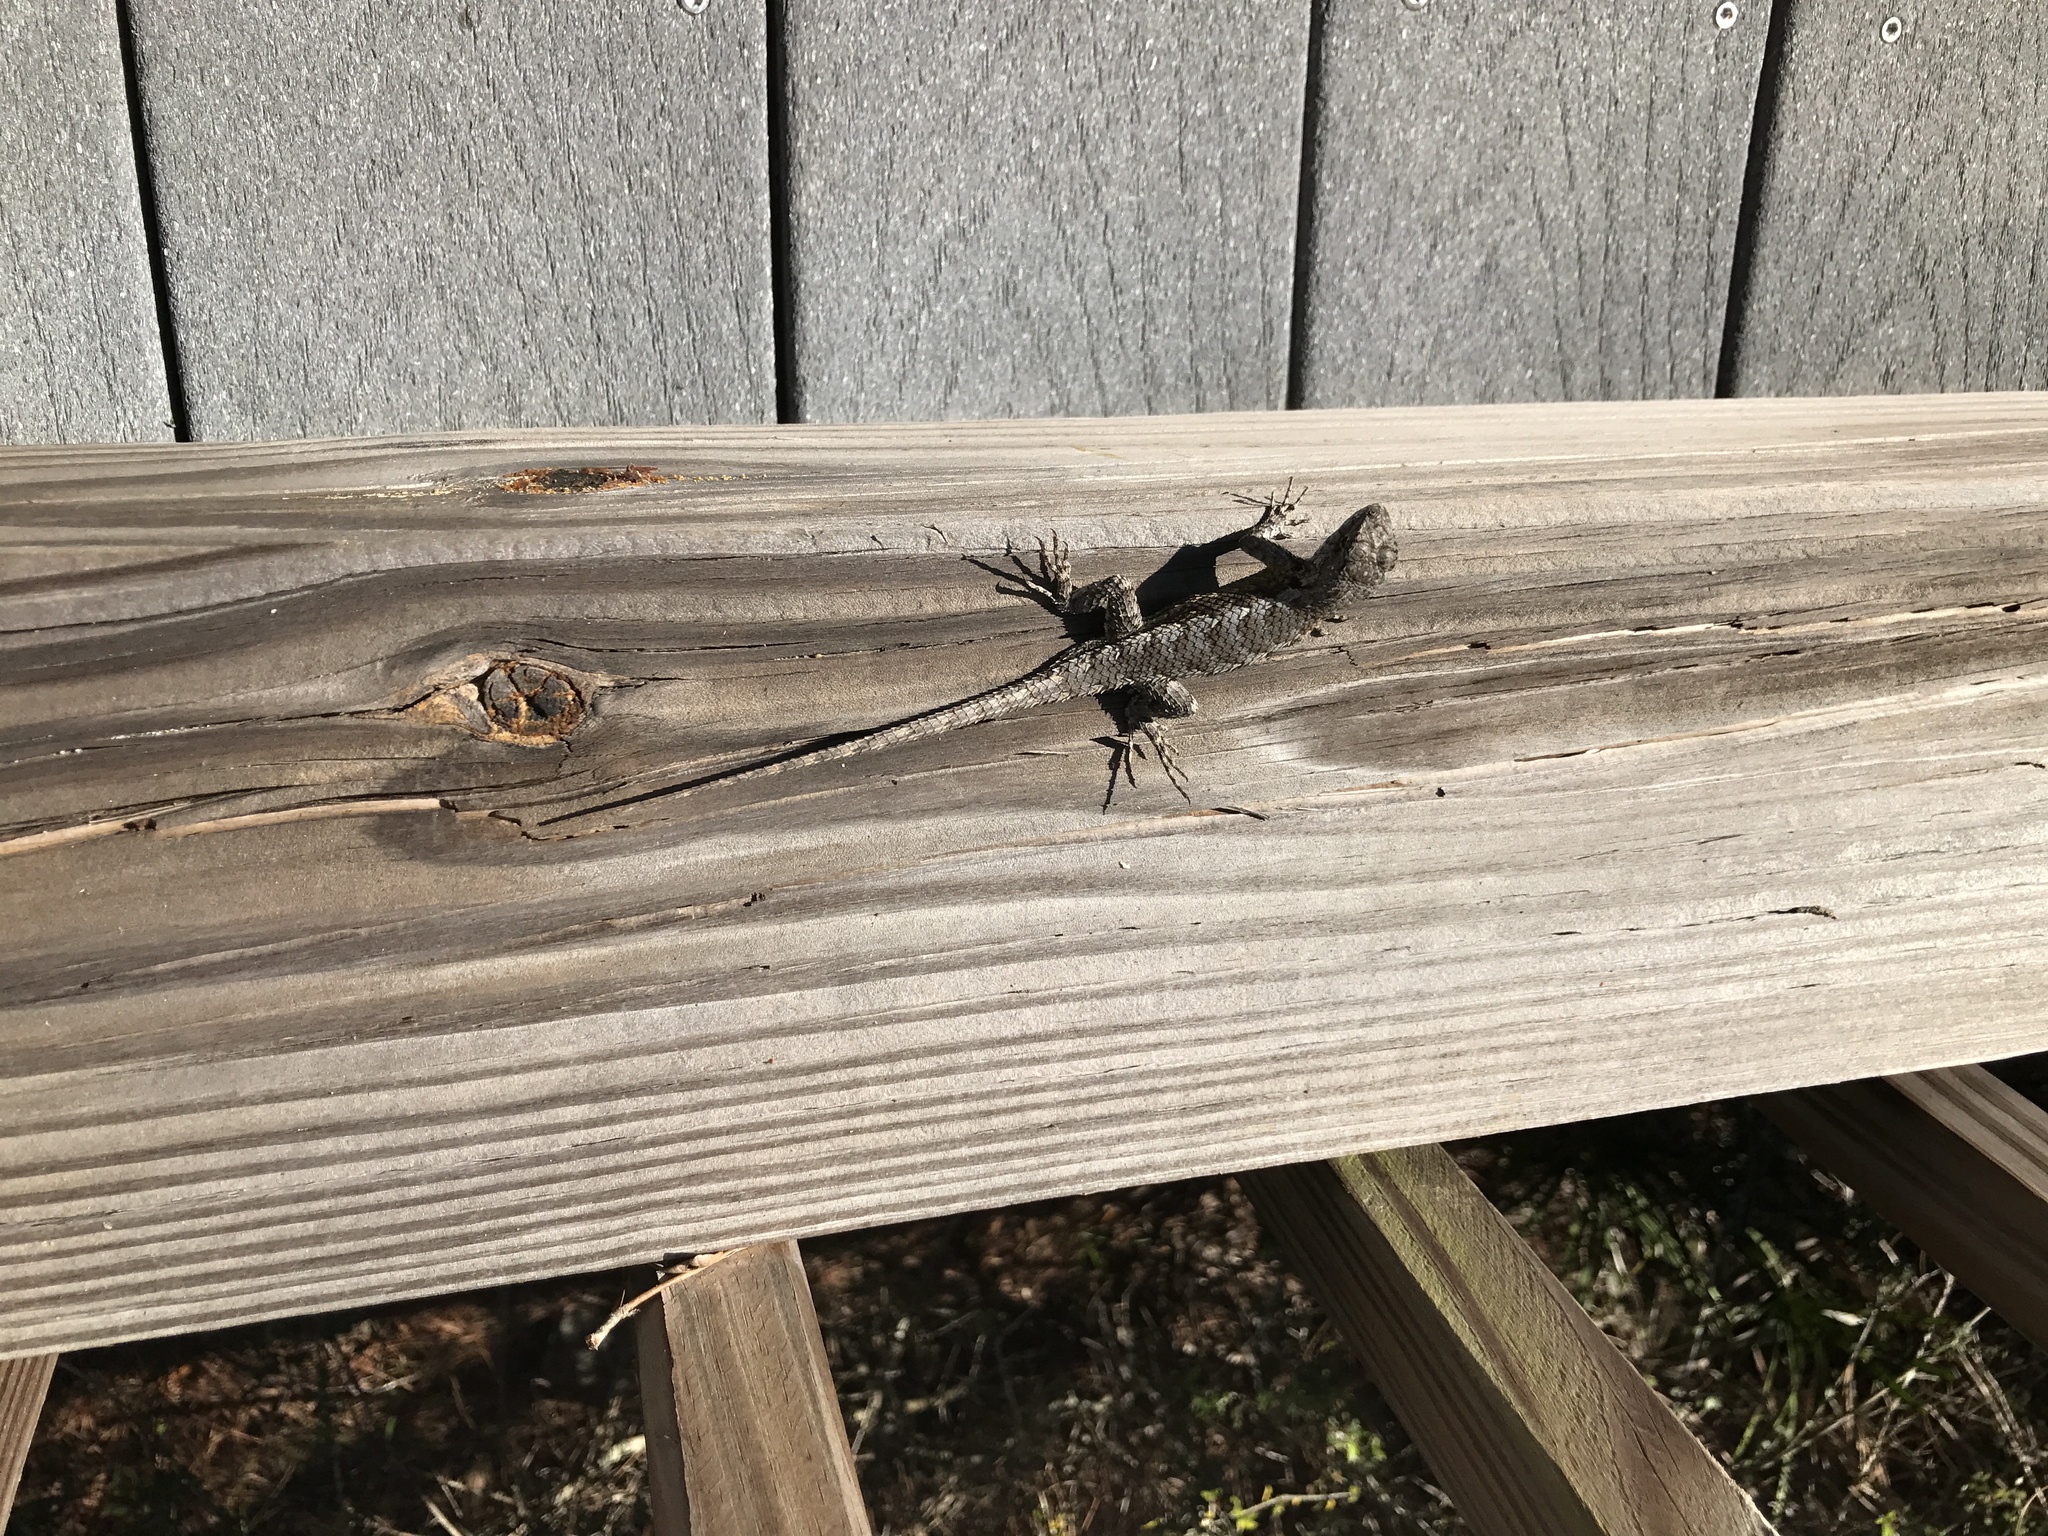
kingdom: Animalia
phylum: Chordata
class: Squamata
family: Phrynosomatidae
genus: Sceloporus
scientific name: Sceloporus undulatus
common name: Eastern fence lizard
